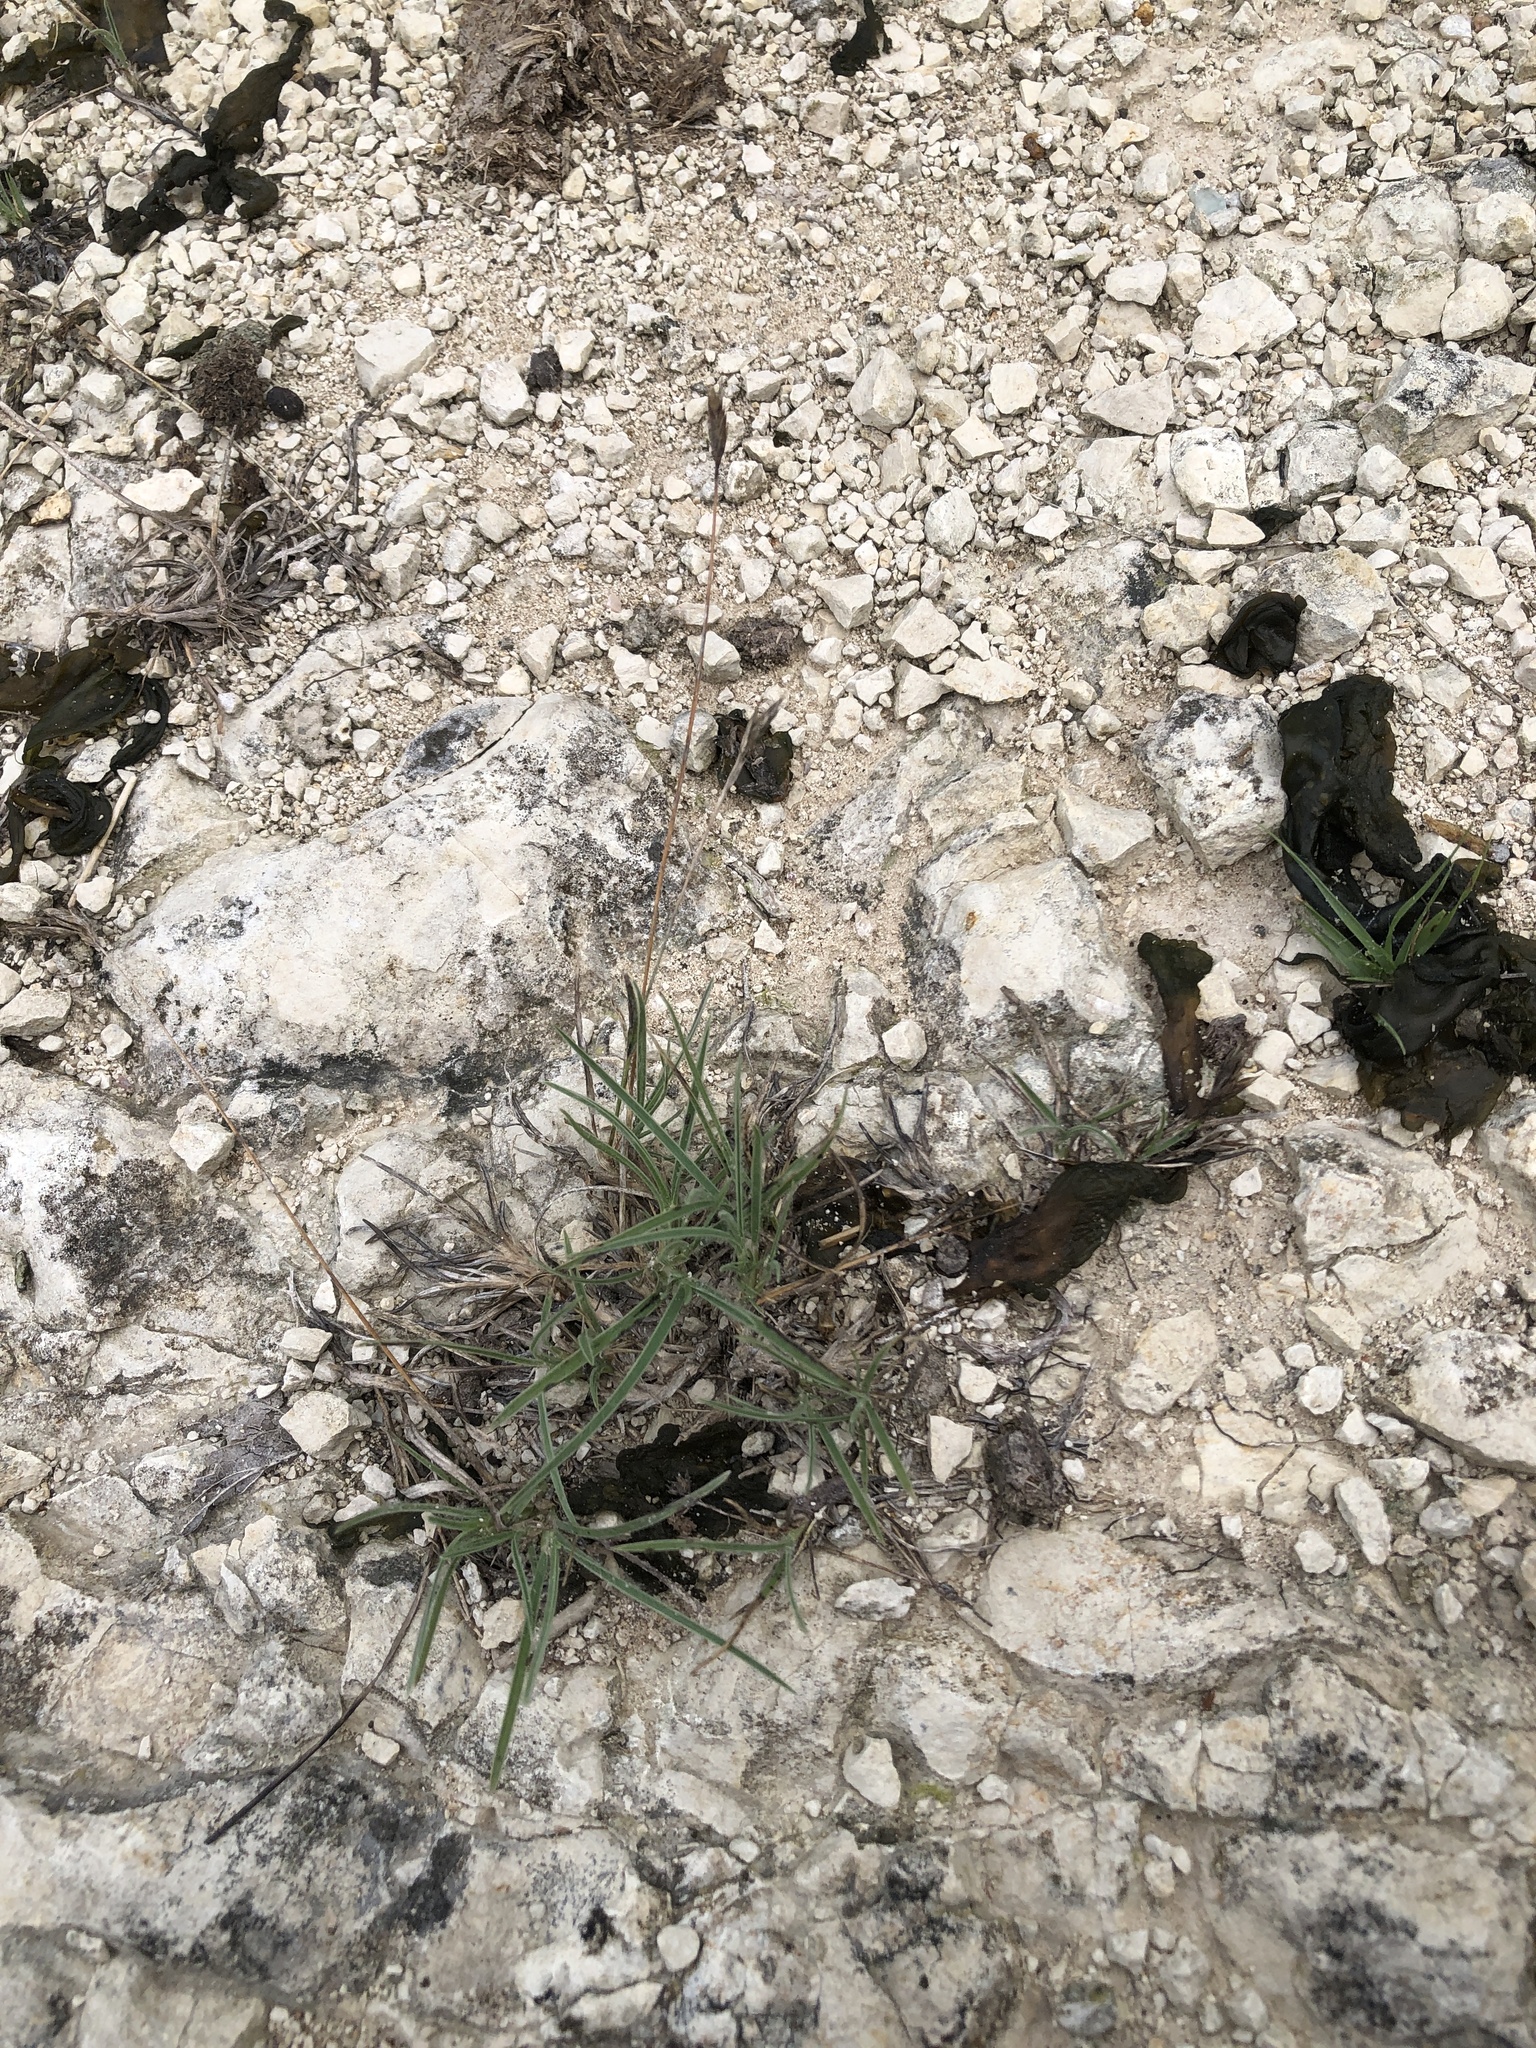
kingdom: Plantae
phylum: Tracheophyta
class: Liliopsida
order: Poales
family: Poaceae
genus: Erioneuron
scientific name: Erioneuron pilosum
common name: Hairy woolly grass
